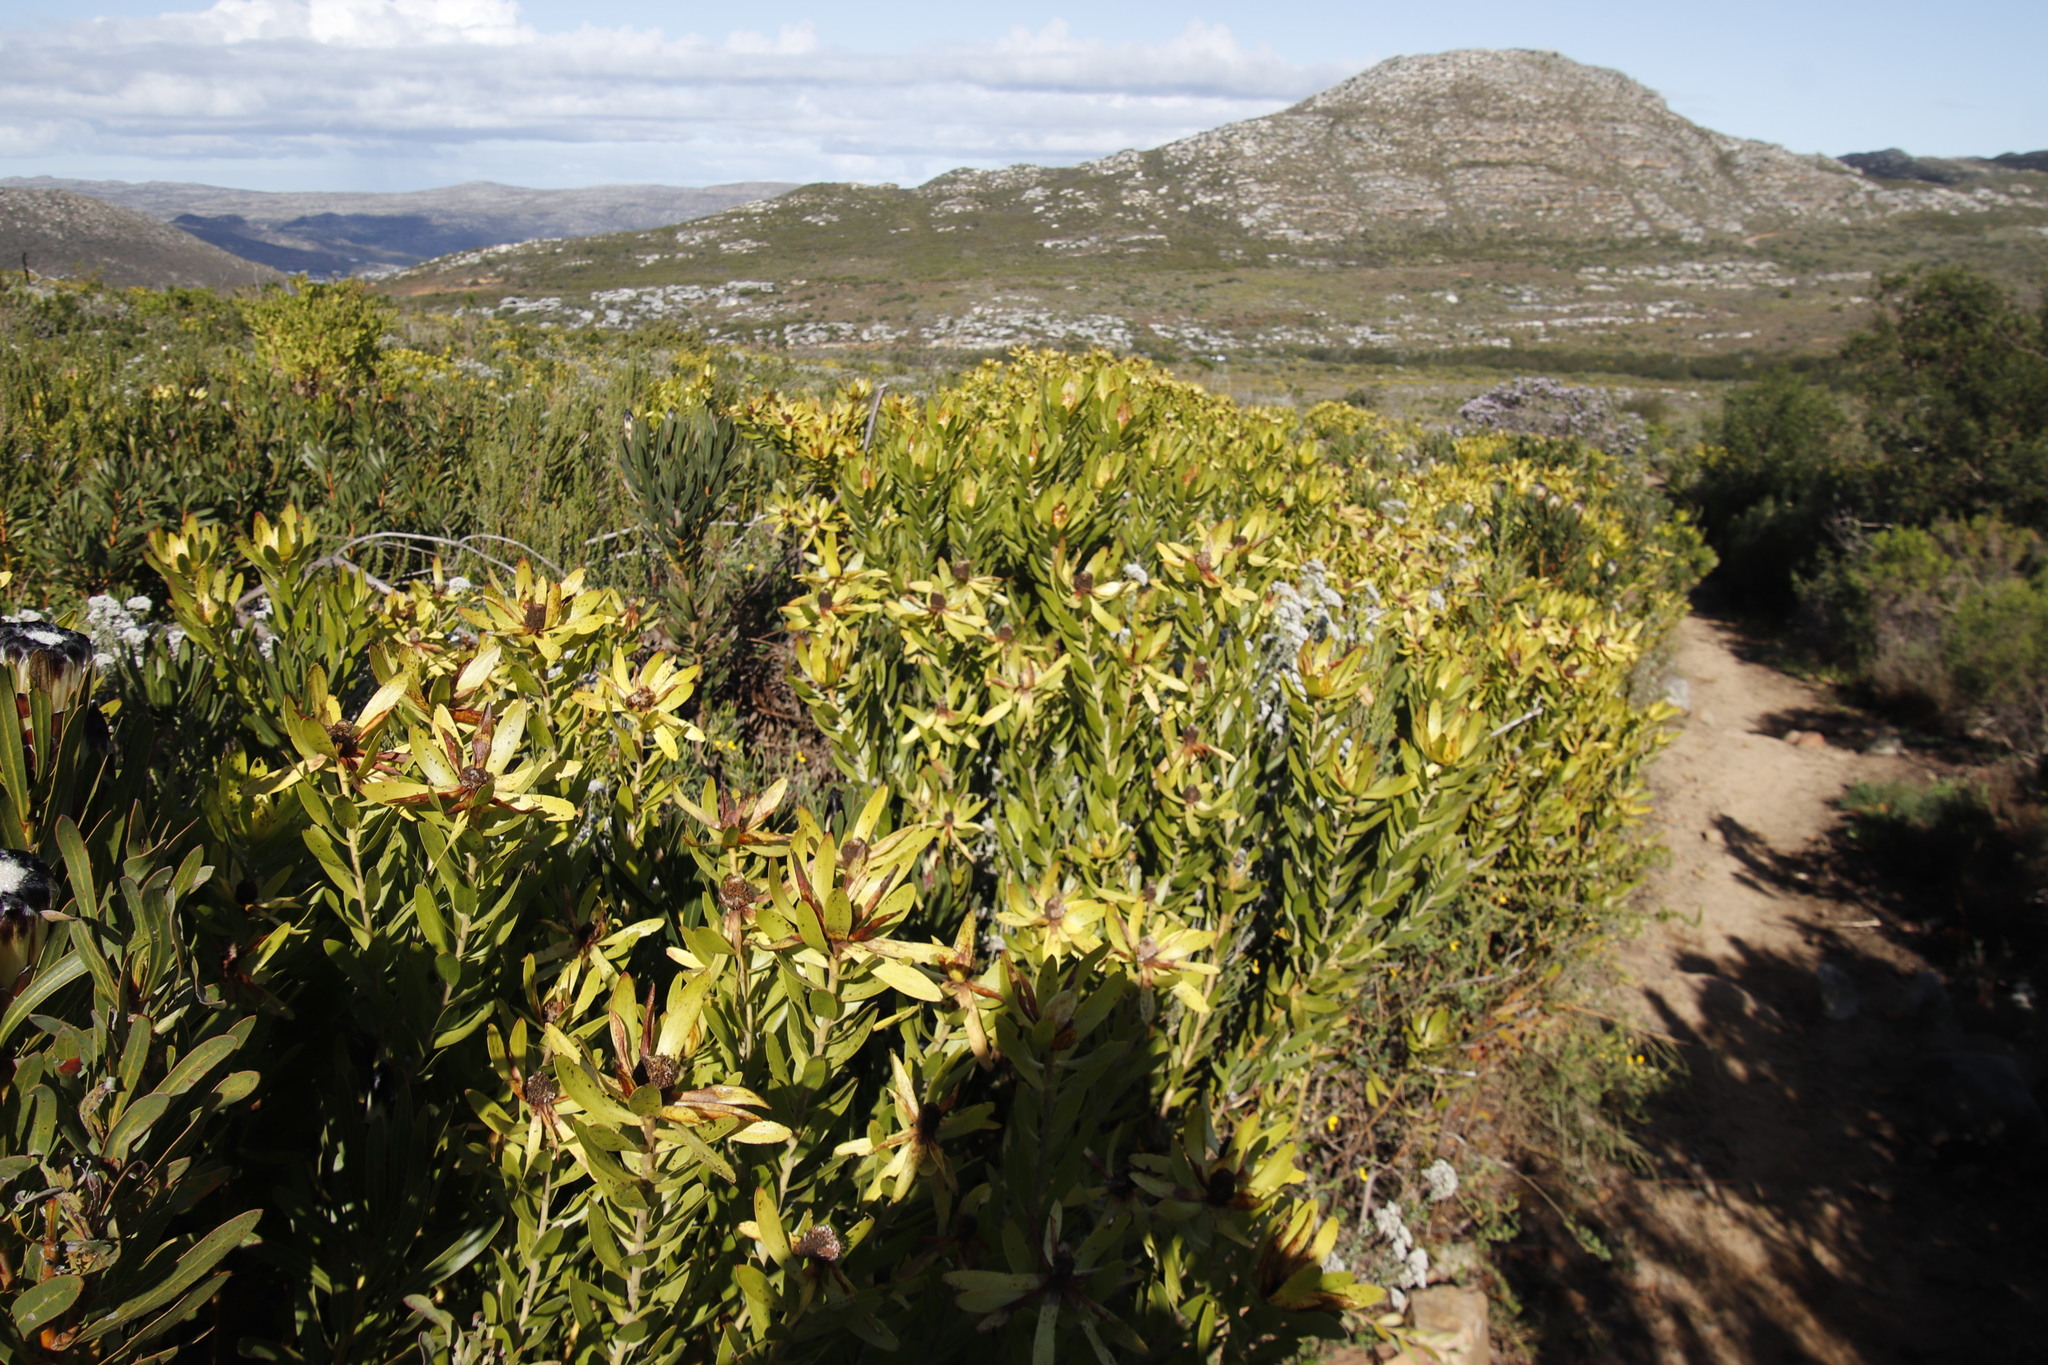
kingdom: Plantae
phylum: Tracheophyta
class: Magnoliopsida
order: Proteales
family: Proteaceae
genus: Leucadendron
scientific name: Leucadendron laureolum
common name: Golden sunshinebush
